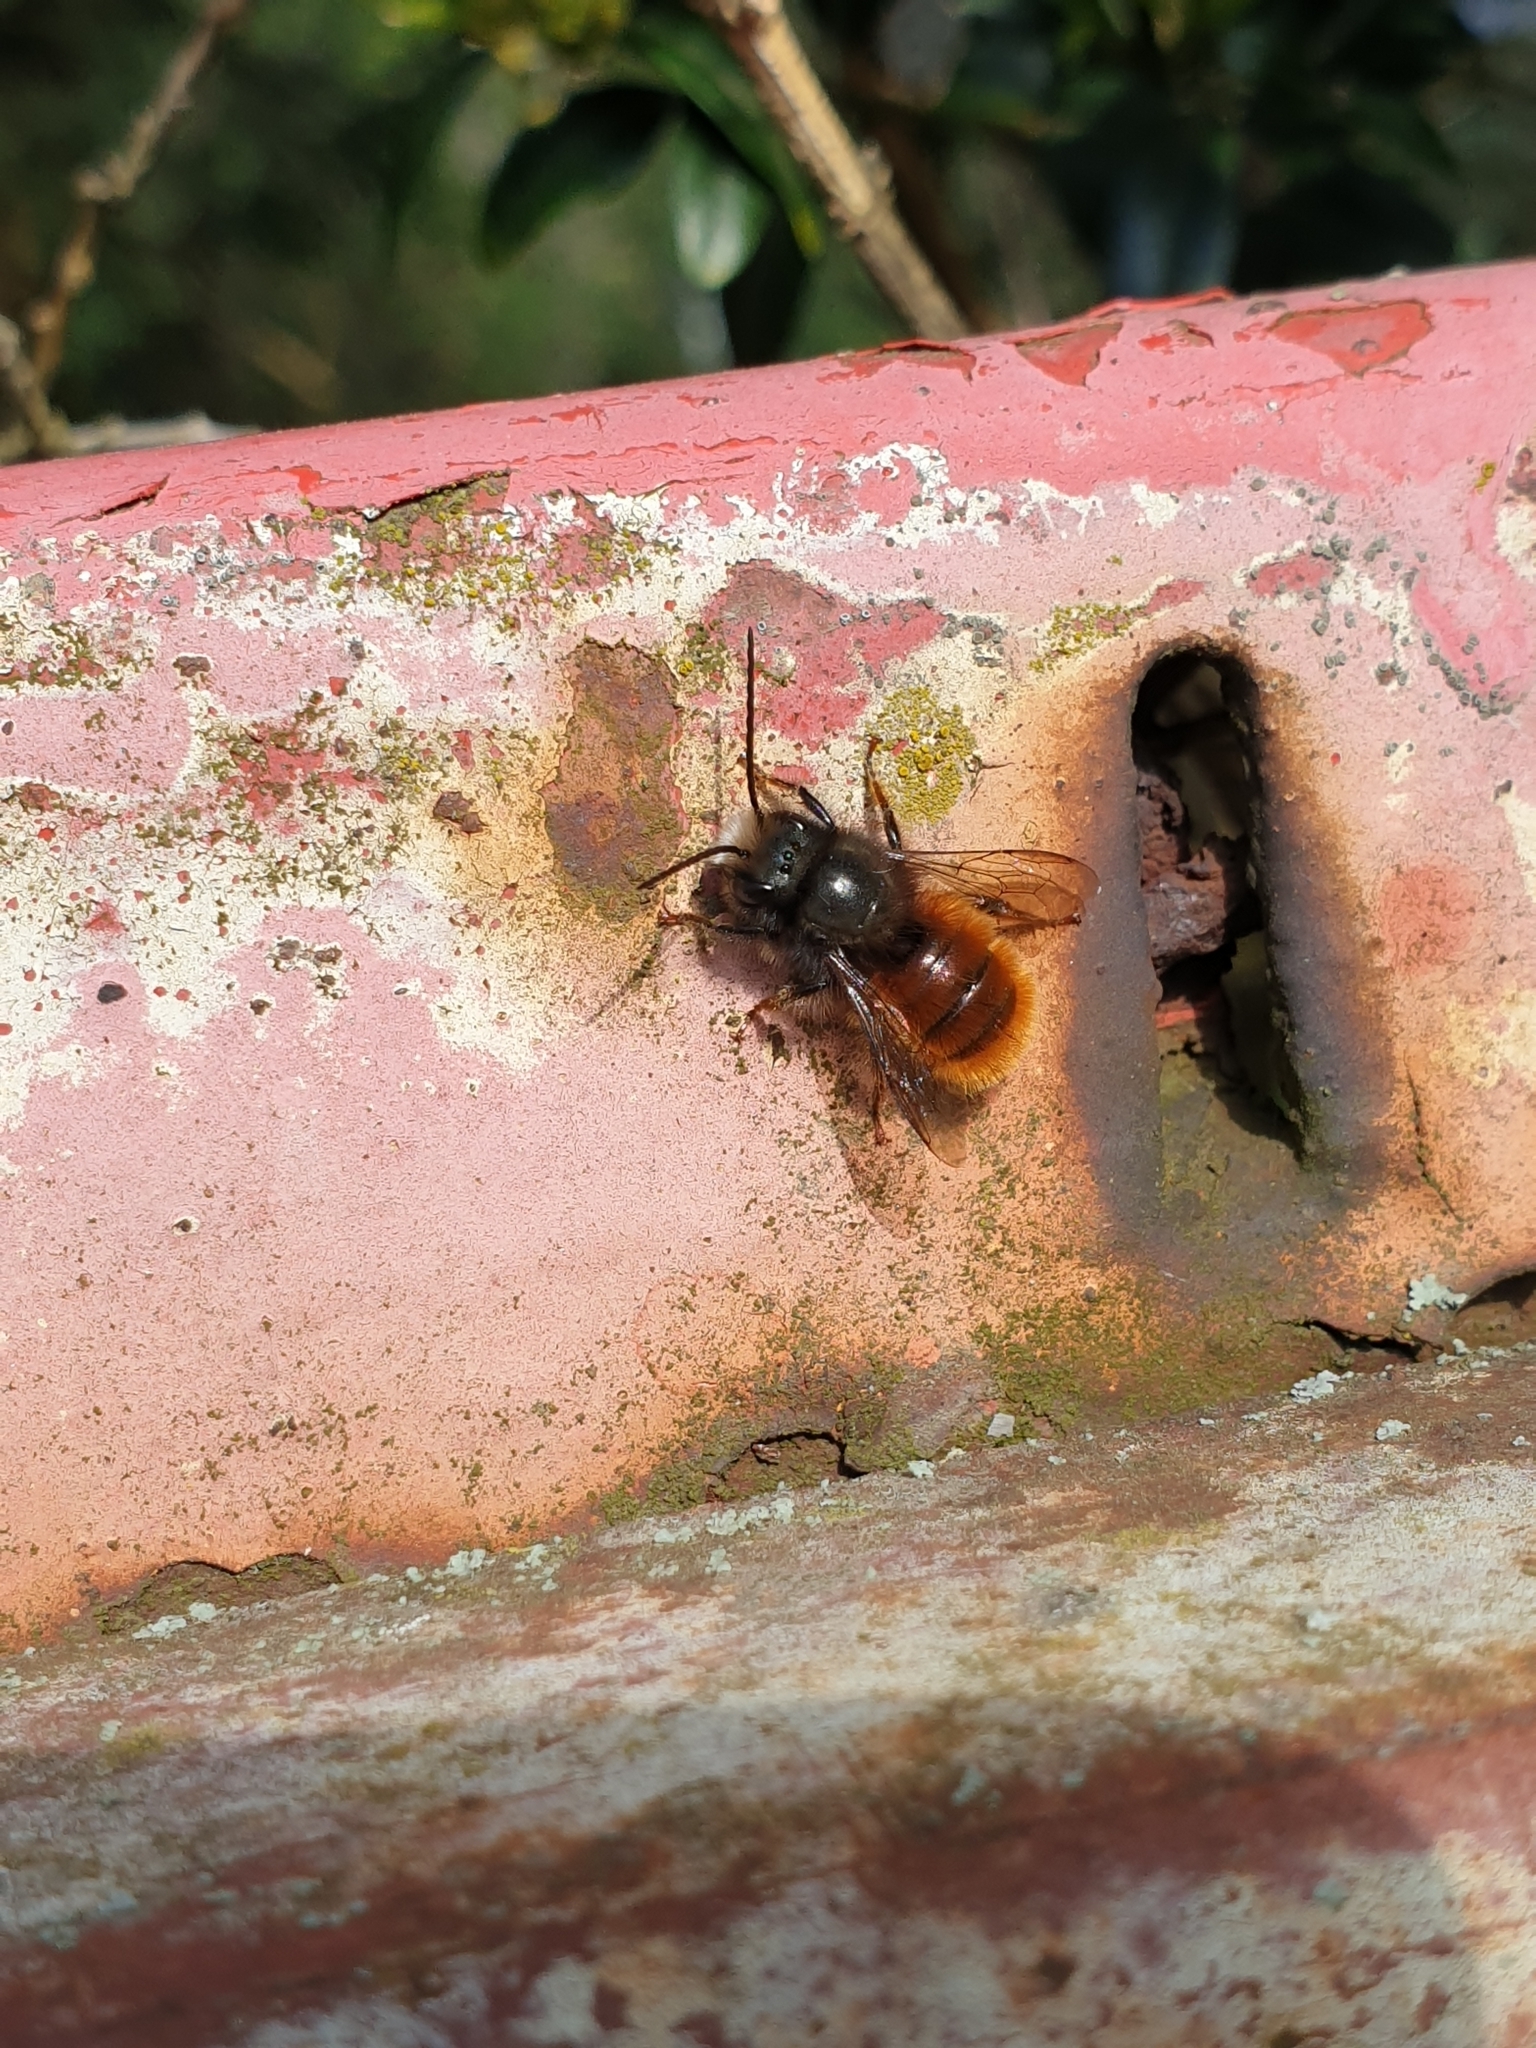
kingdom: Animalia
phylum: Arthropoda
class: Insecta
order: Hymenoptera
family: Megachilidae
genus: Osmia
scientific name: Osmia cornuta
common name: Mason bee
